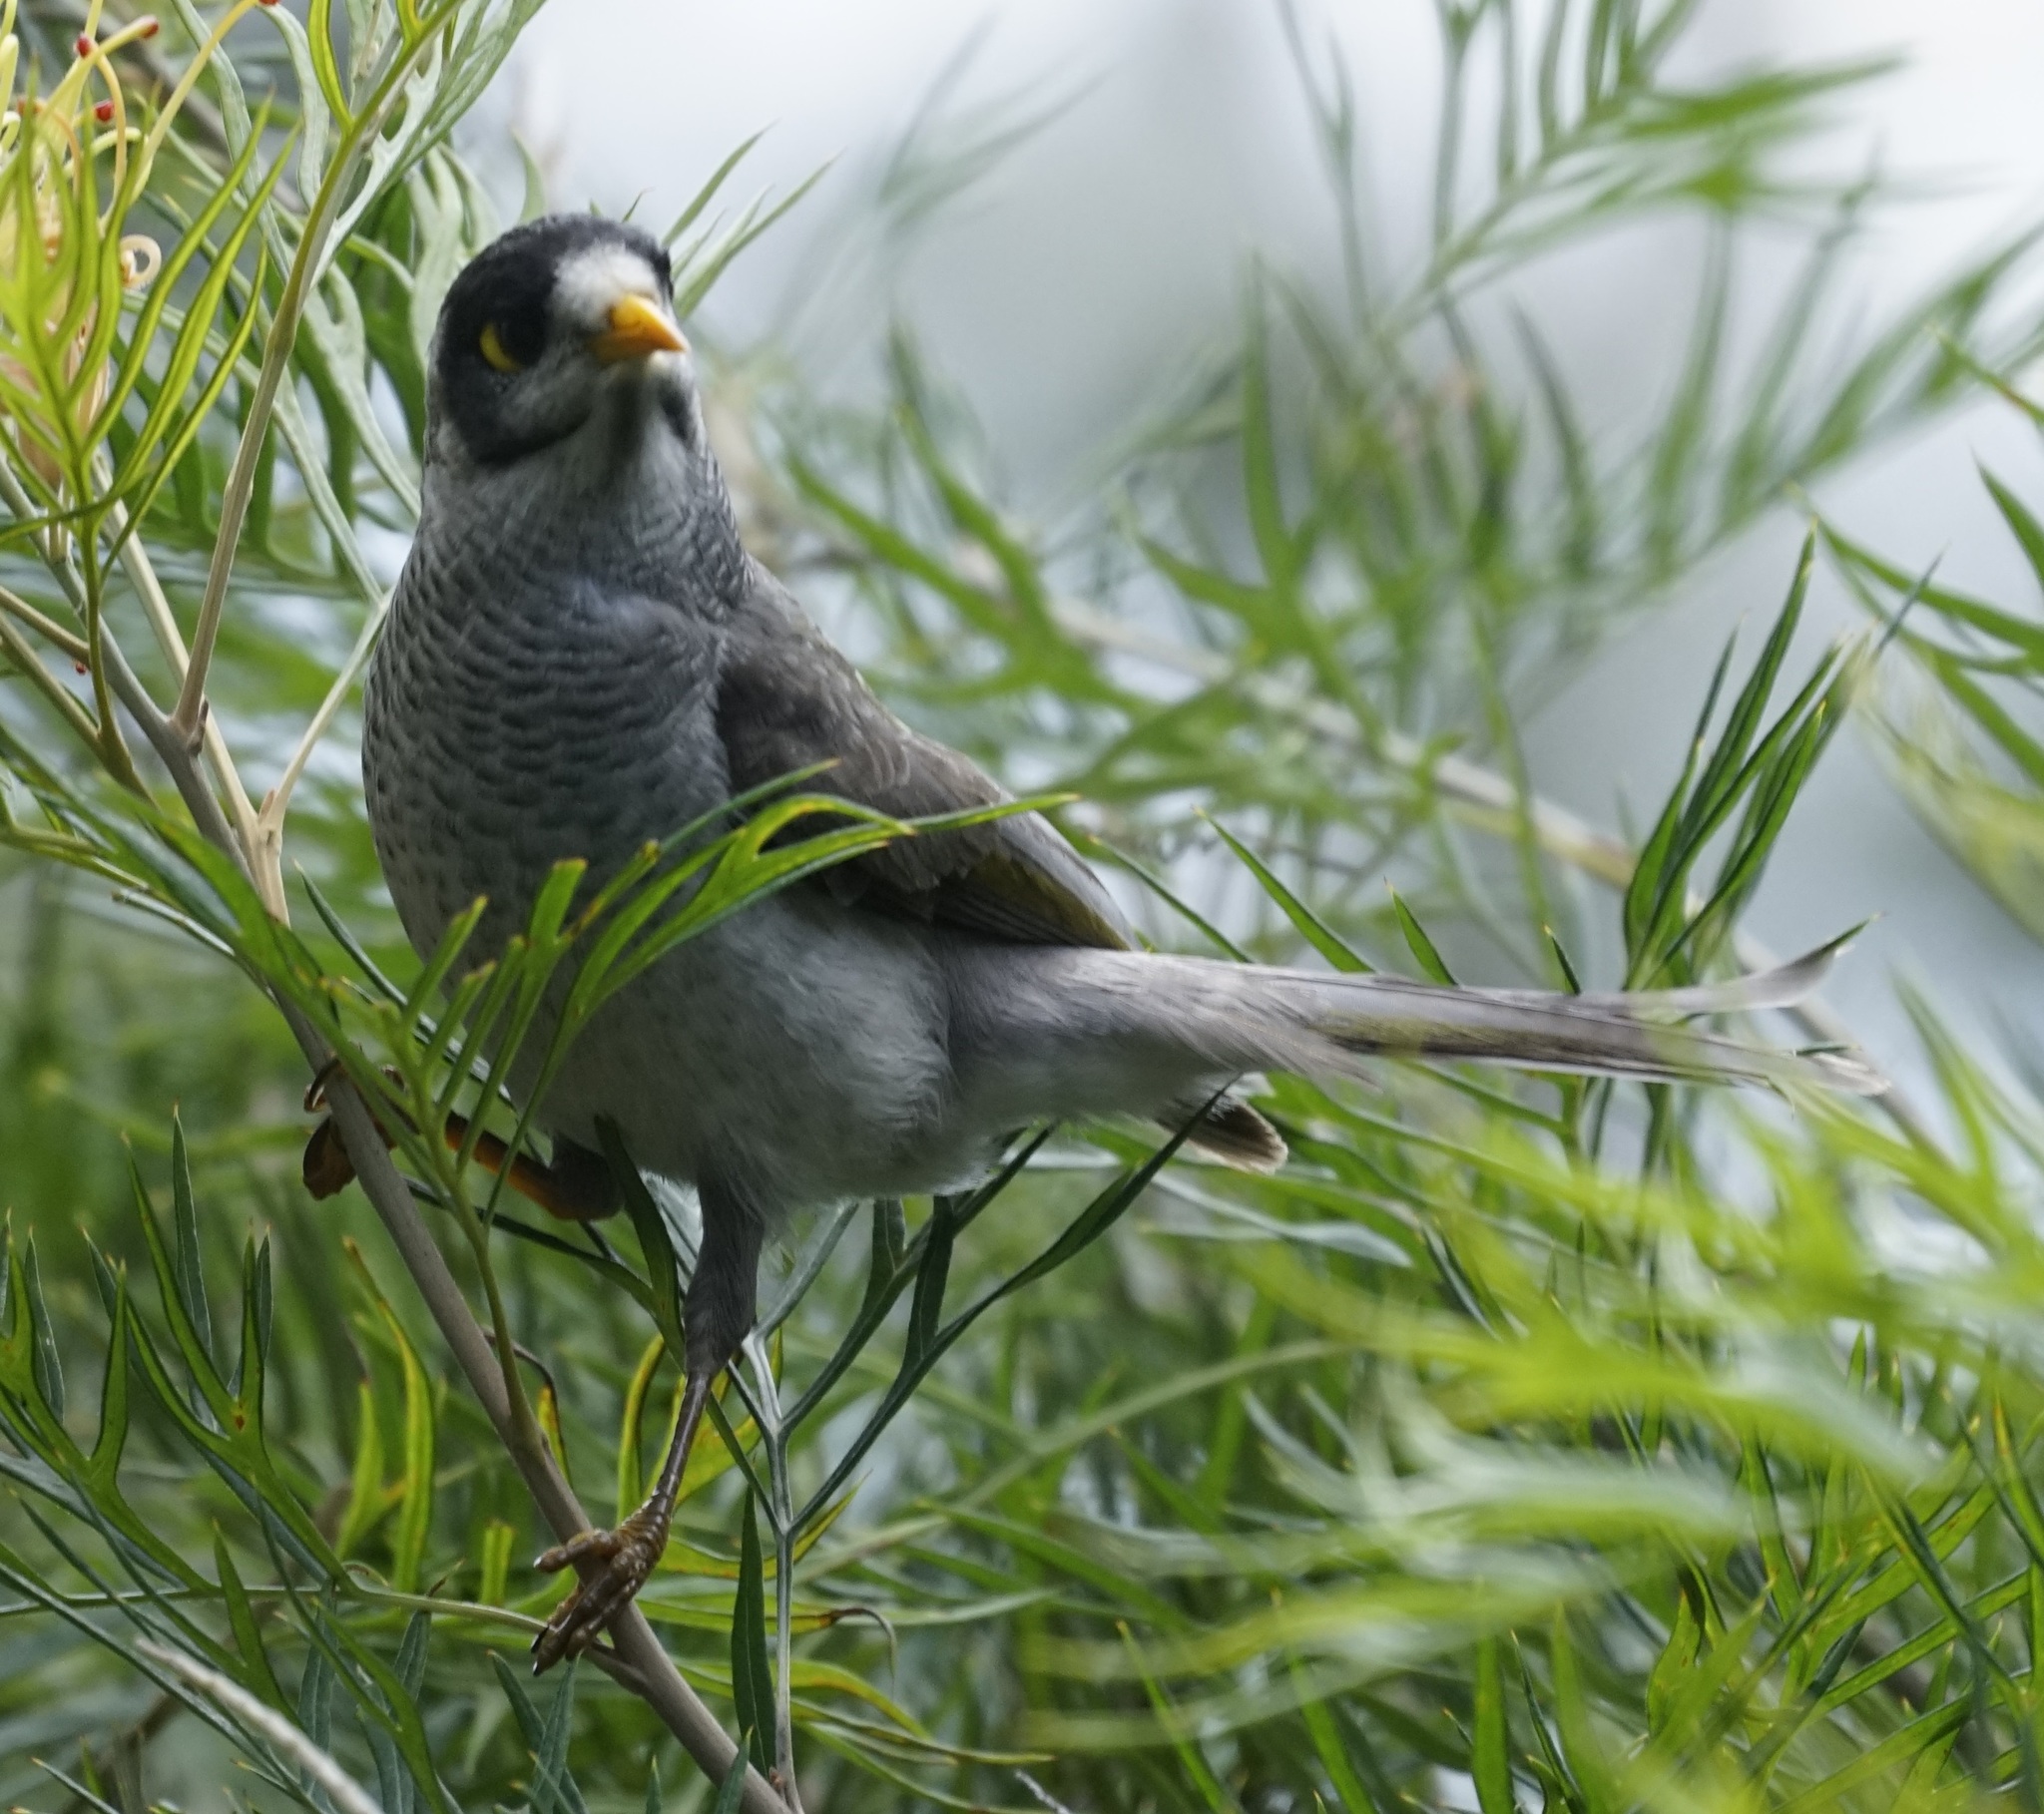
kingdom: Animalia
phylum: Chordata
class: Aves
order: Passeriformes
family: Meliphagidae
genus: Manorina
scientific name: Manorina melanocephala
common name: Noisy miner
